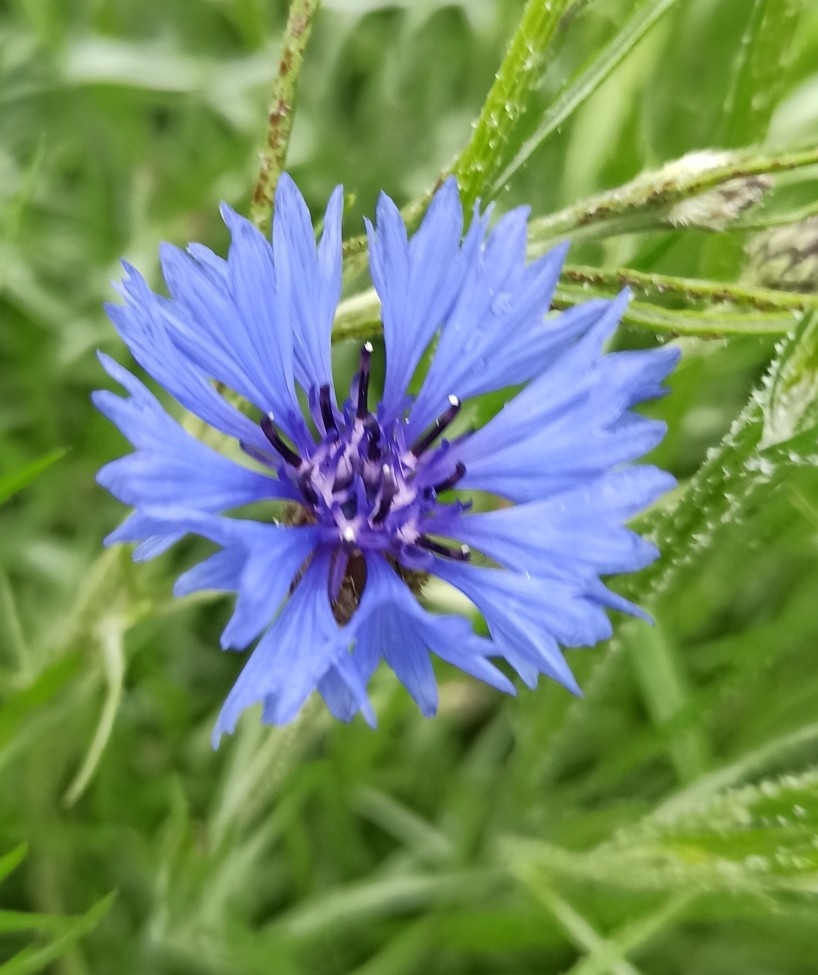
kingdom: Plantae
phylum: Tracheophyta
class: Magnoliopsida
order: Asterales
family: Asteraceae
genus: Centaurea
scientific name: Centaurea cyanus
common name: Cornflower
